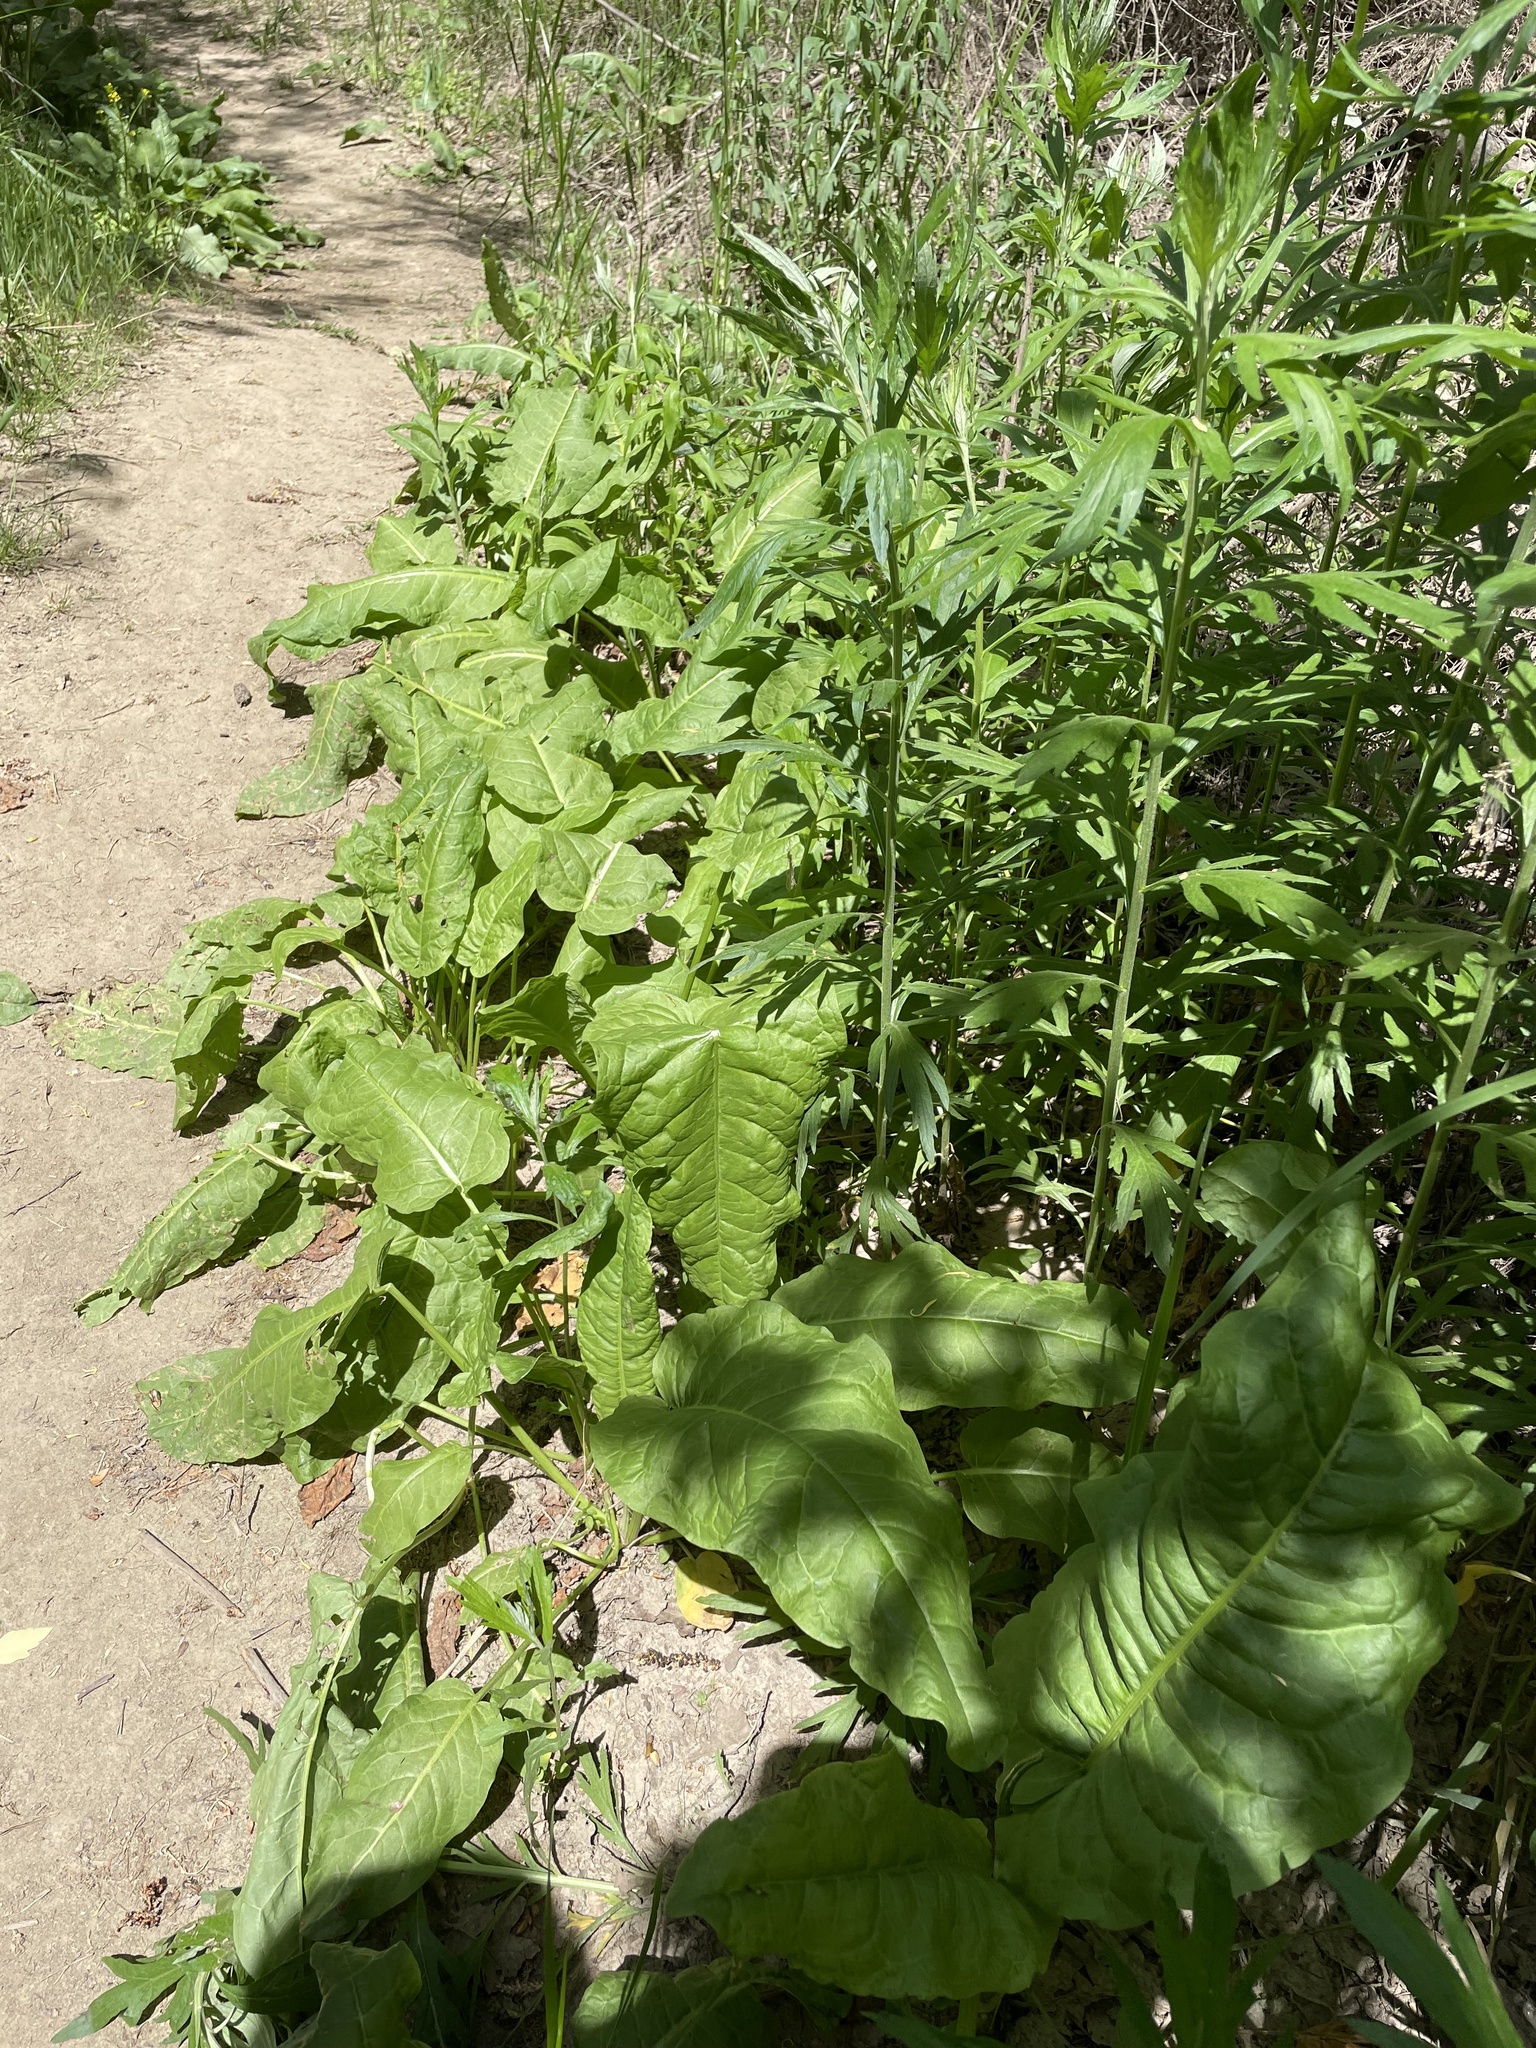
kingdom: Plantae
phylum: Tracheophyta
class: Magnoliopsida
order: Caryophyllales
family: Polygonaceae
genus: Rumex
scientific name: Rumex obtusifolius
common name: Bitter dock
